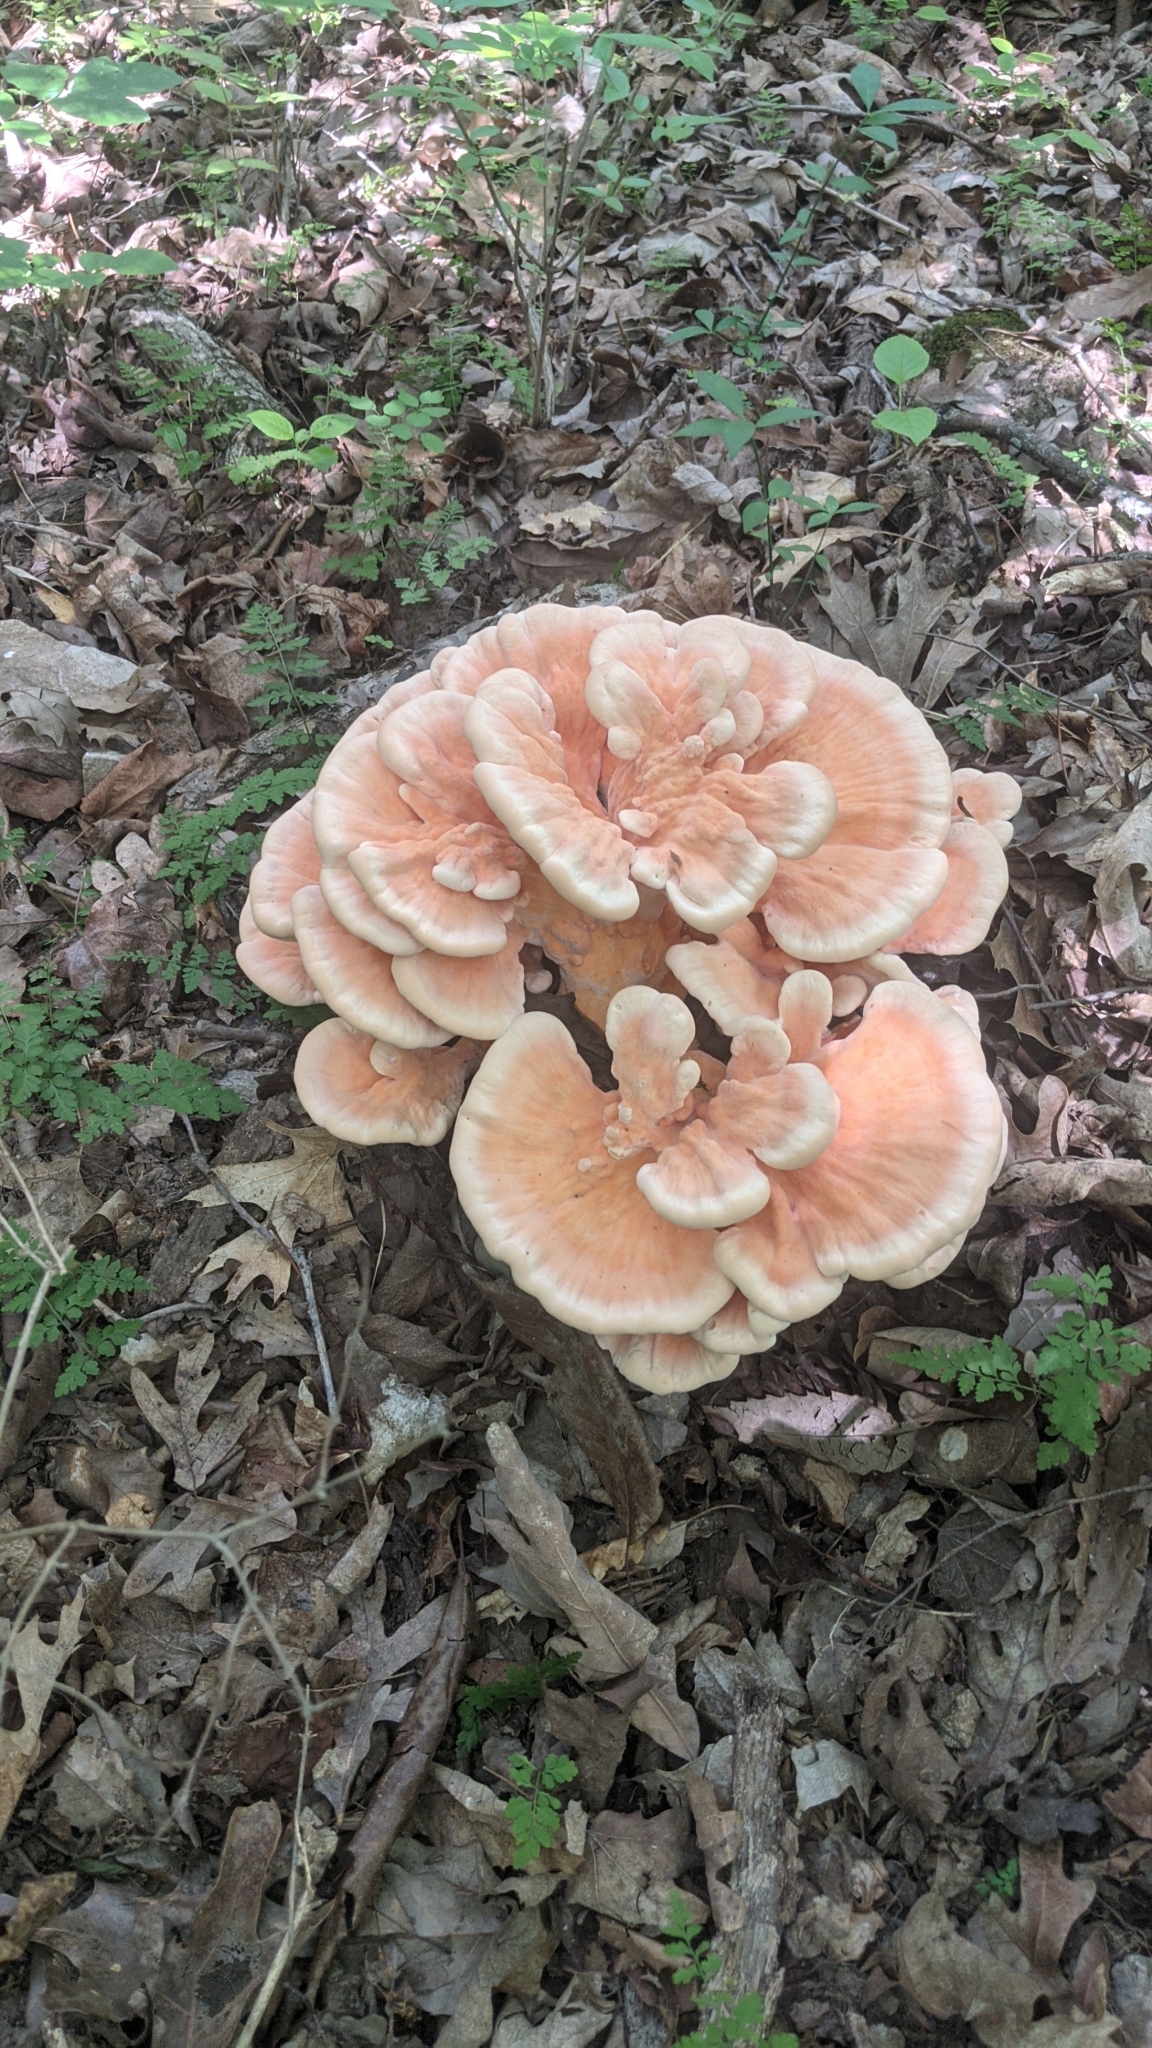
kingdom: Fungi
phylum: Basidiomycota
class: Agaricomycetes
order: Polyporales
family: Laetiporaceae
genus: Laetiporus
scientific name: Laetiporus sulphureus
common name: Chicken of the woods
